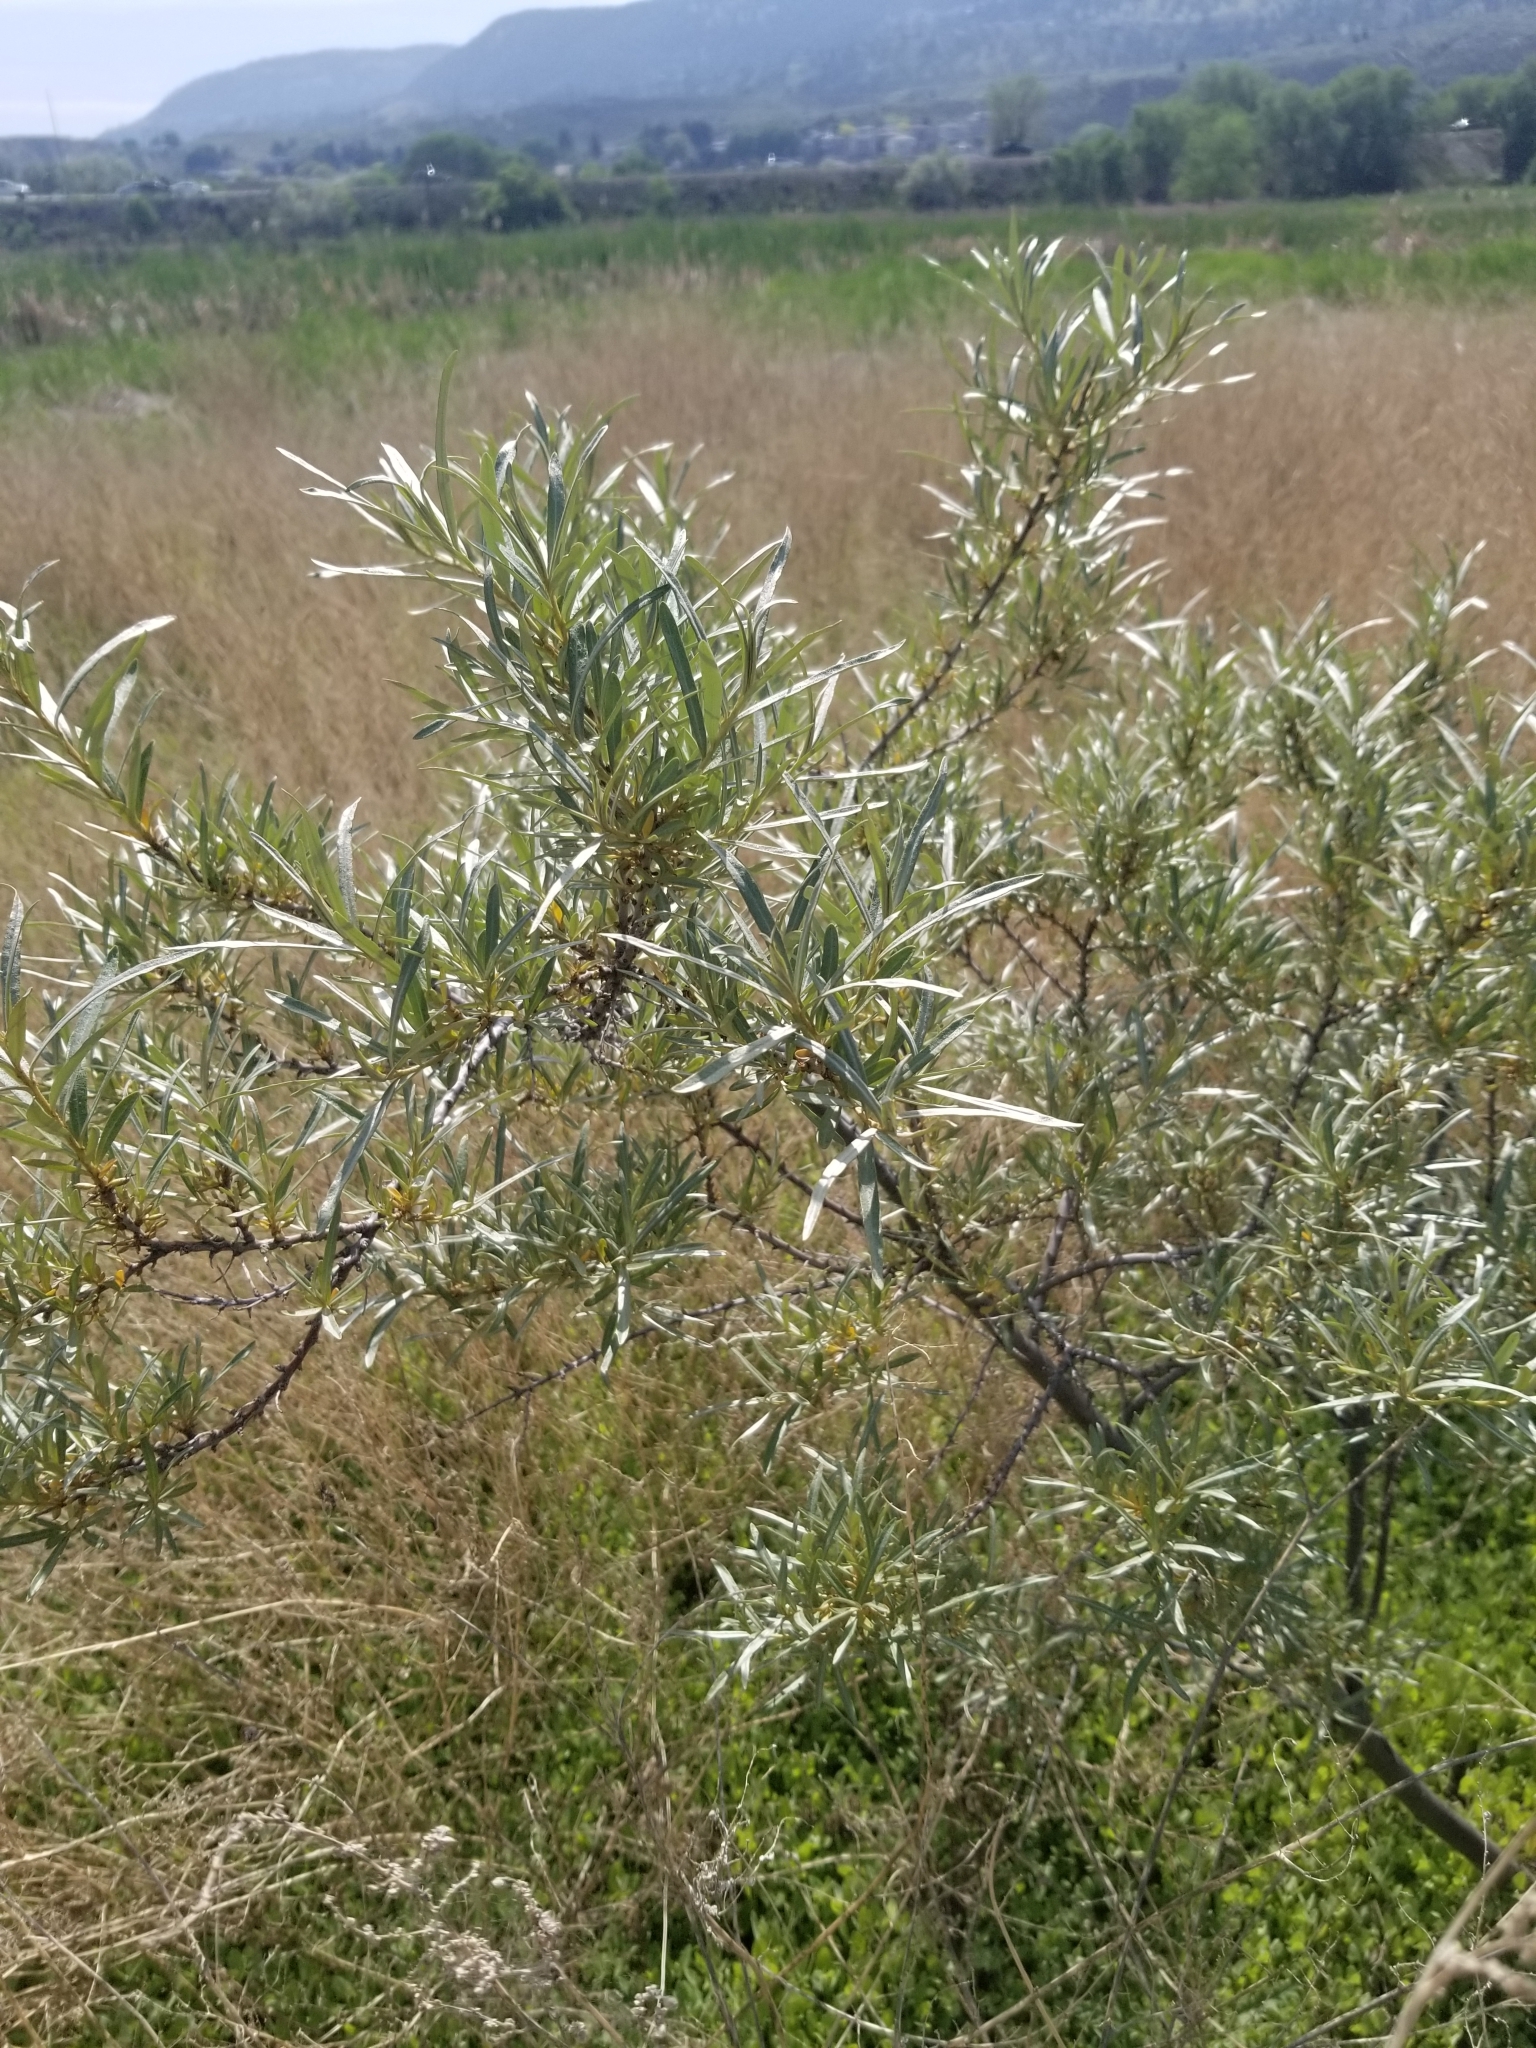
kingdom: Plantae
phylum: Tracheophyta
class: Magnoliopsida
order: Rosales
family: Elaeagnaceae
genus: Hippophae
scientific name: Hippophae rhamnoides
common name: Sea-buckthorn
